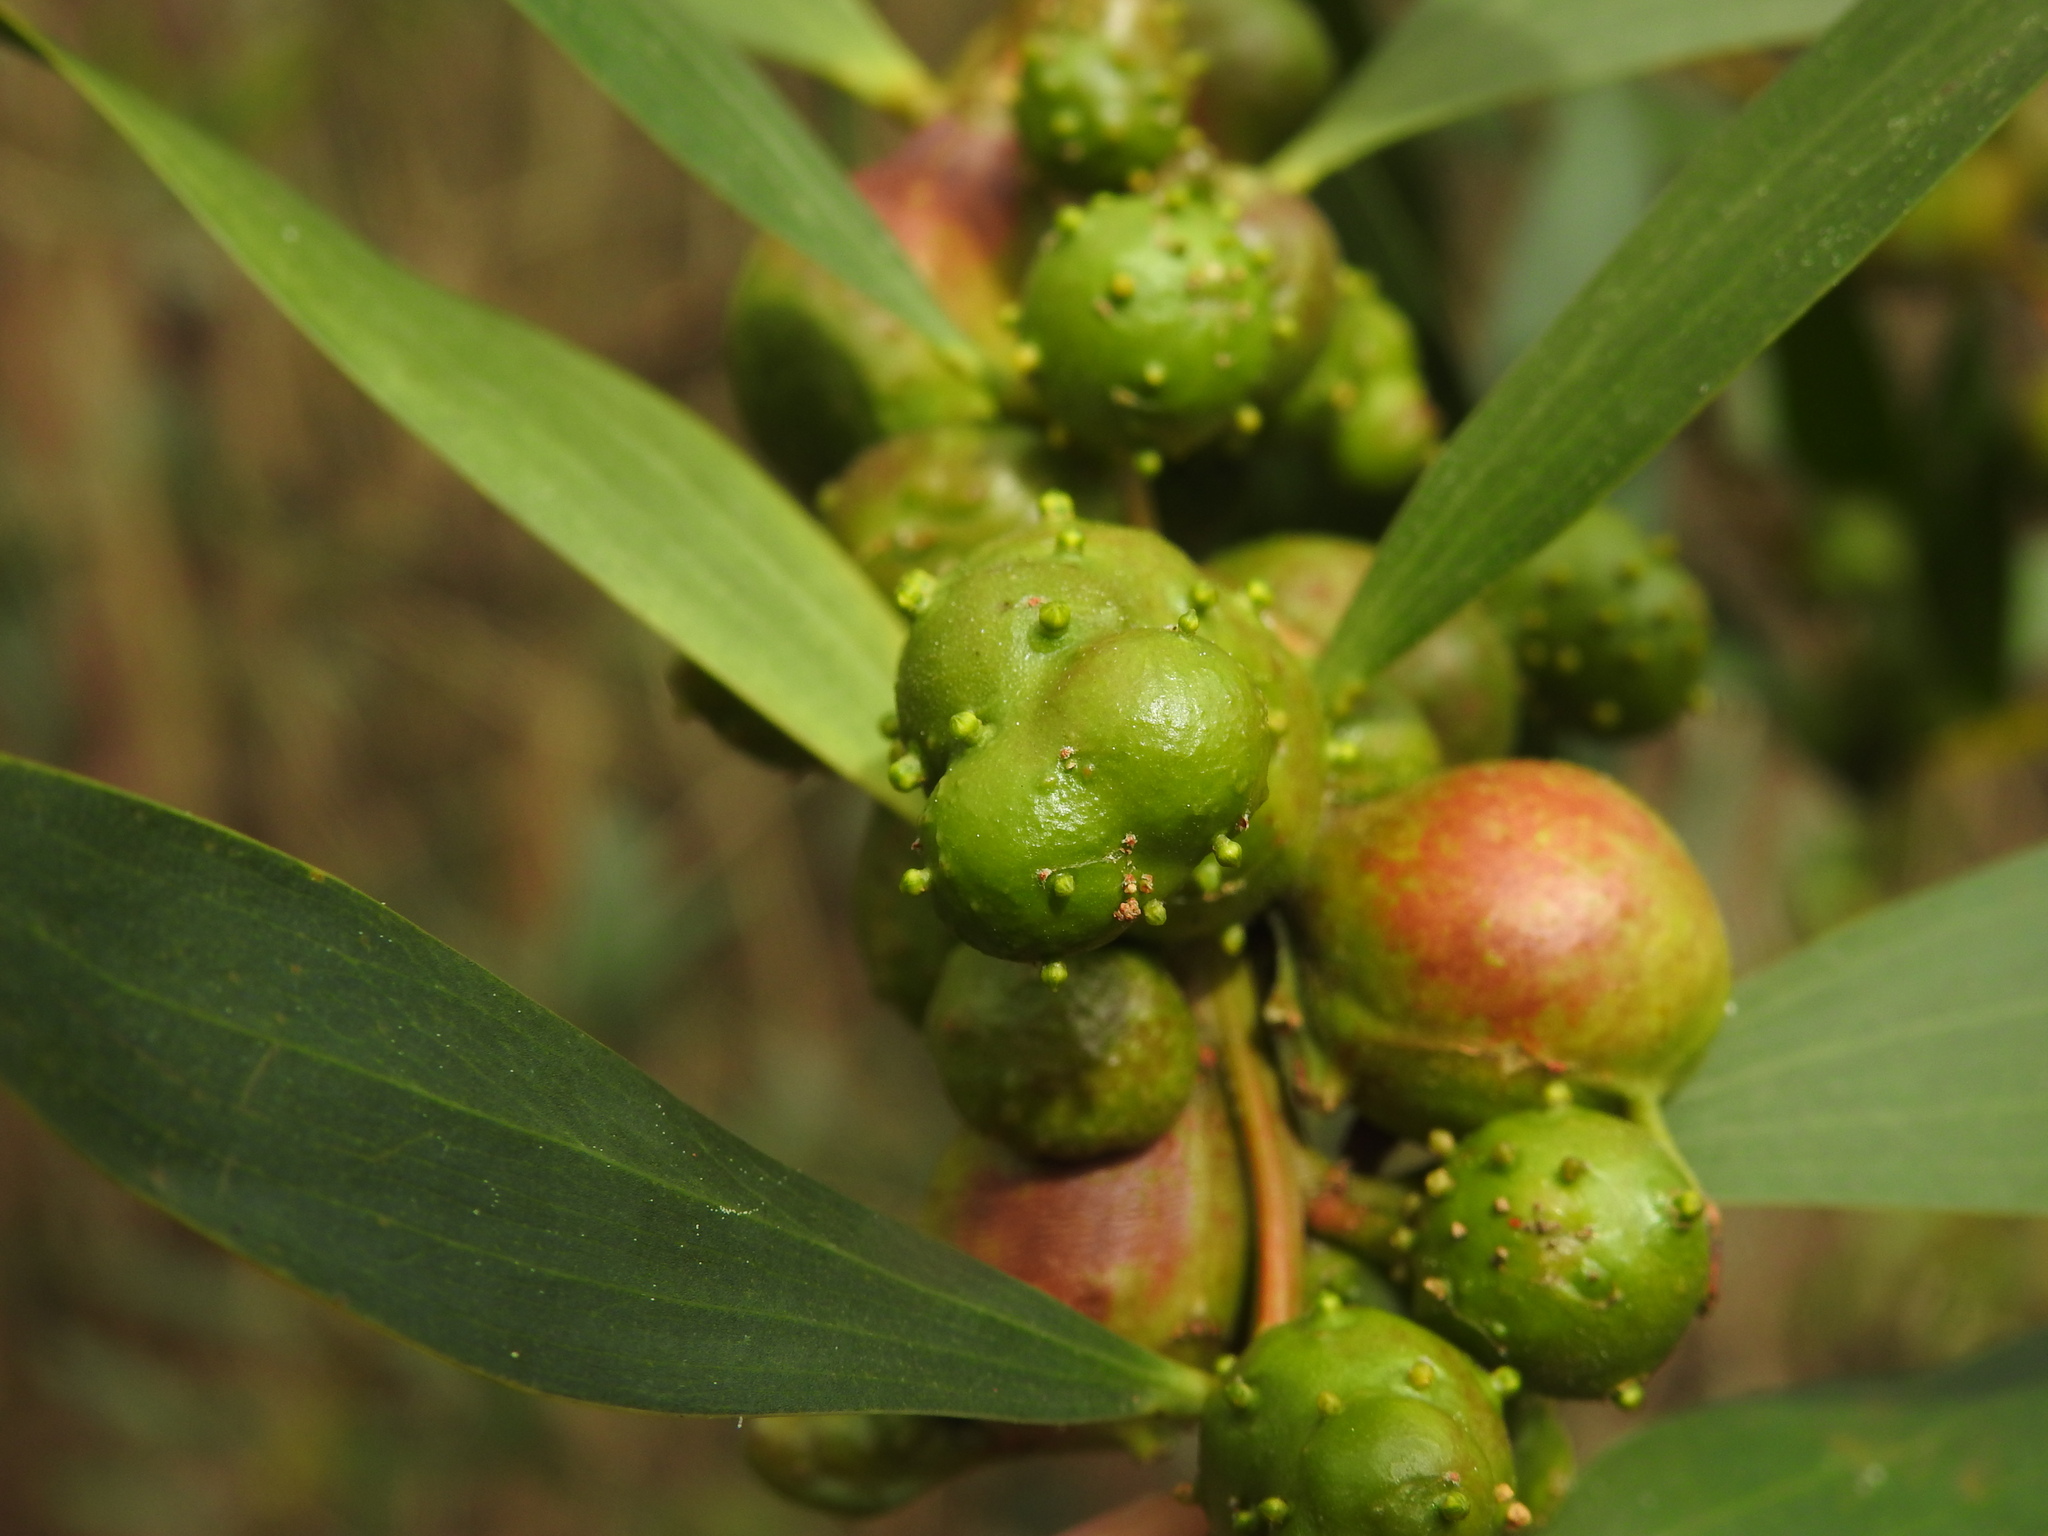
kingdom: Animalia
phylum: Arthropoda
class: Insecta
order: Hymenoptera
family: Pteromalidae
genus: Trichilogaster
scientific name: Trichilogaster acaciaelongifoliae
